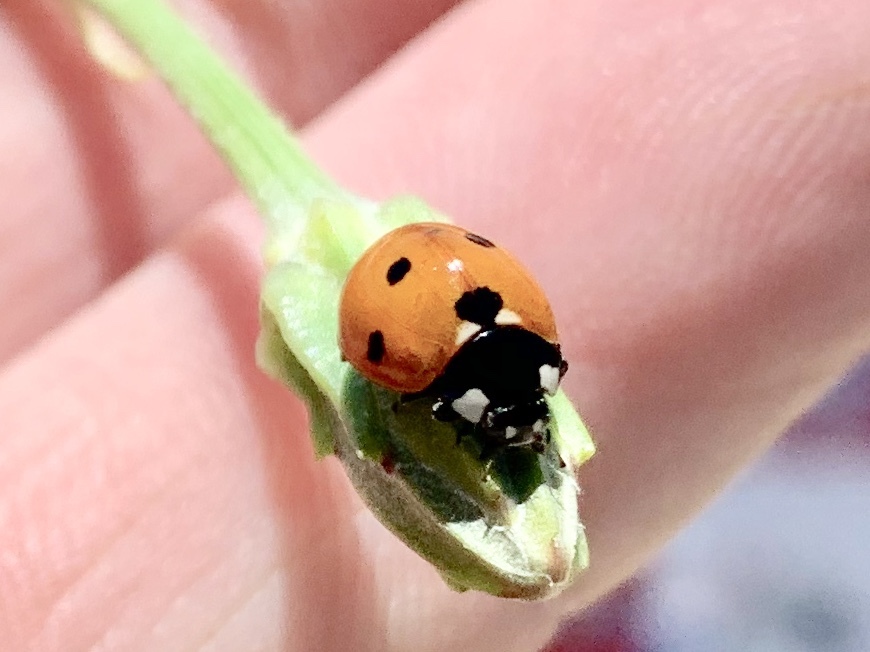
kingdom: Animalia
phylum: Arthropoda
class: Insecta
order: Coleoptera
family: Coccinellidae
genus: Coccinella
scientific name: Coccinella septempunctata
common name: Sevenspotted lady beetle
